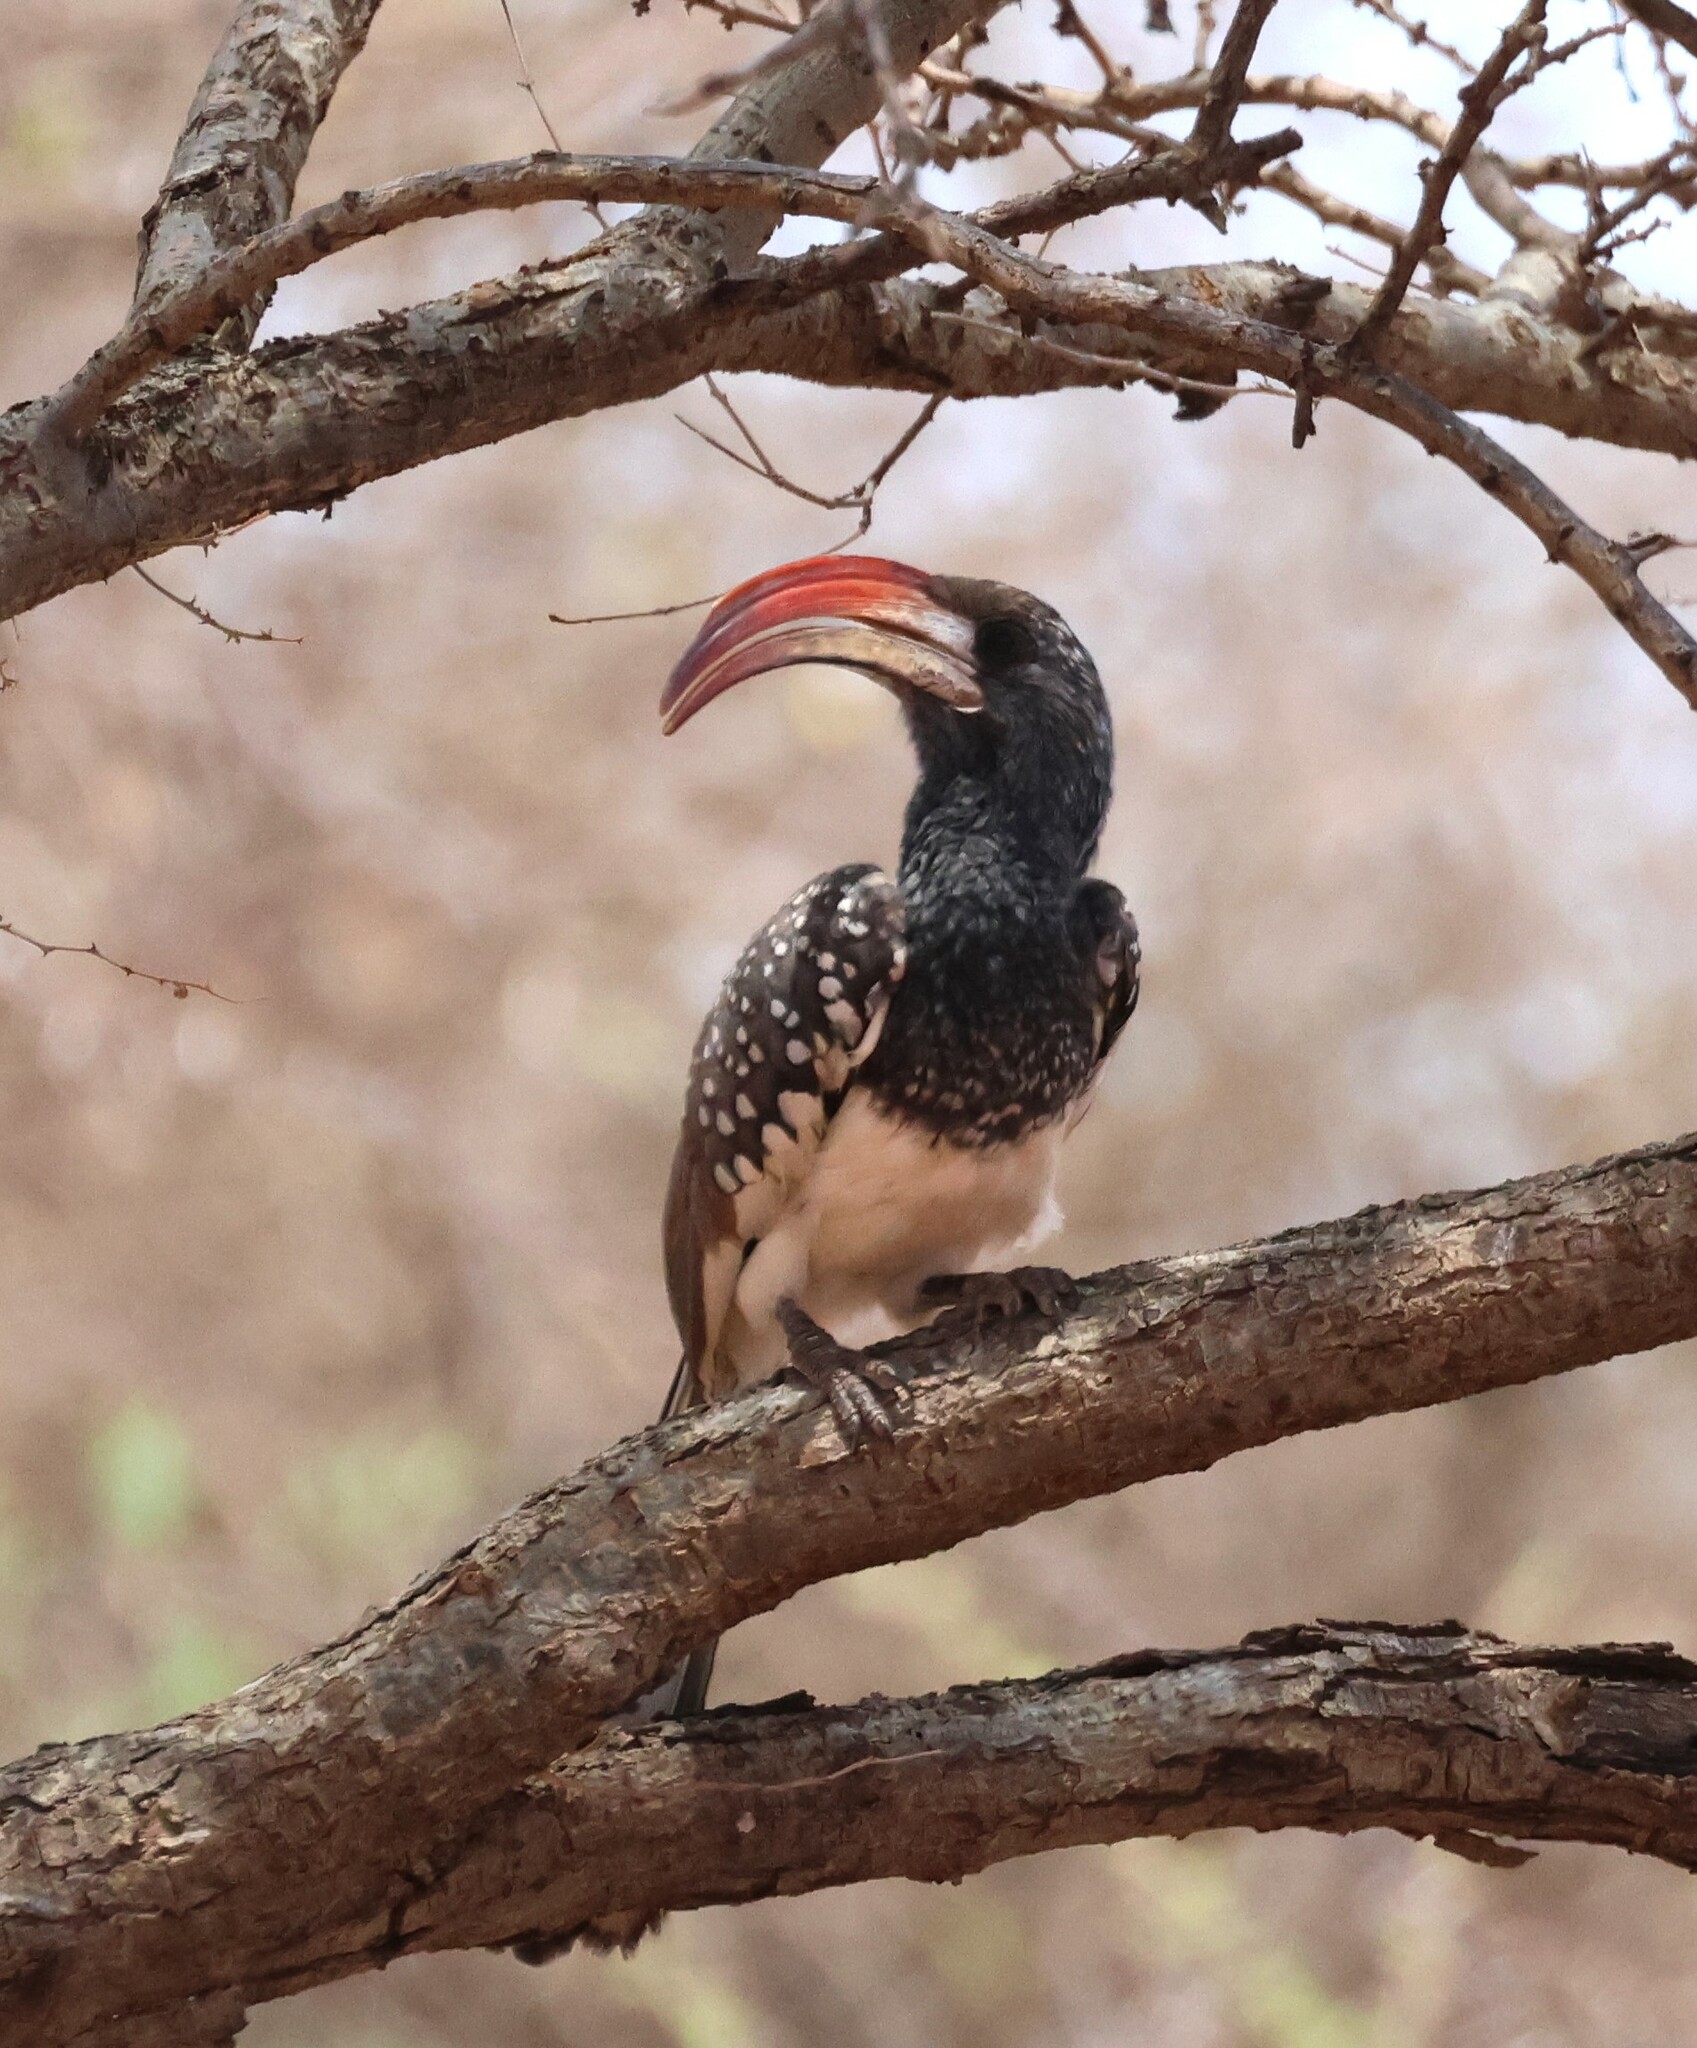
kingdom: Animalia
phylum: Chordata
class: Aves
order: Bucerotiformes
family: Bucerotidae
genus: Tockus
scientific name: Tockus monteiri
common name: Monteiro's hornbill
